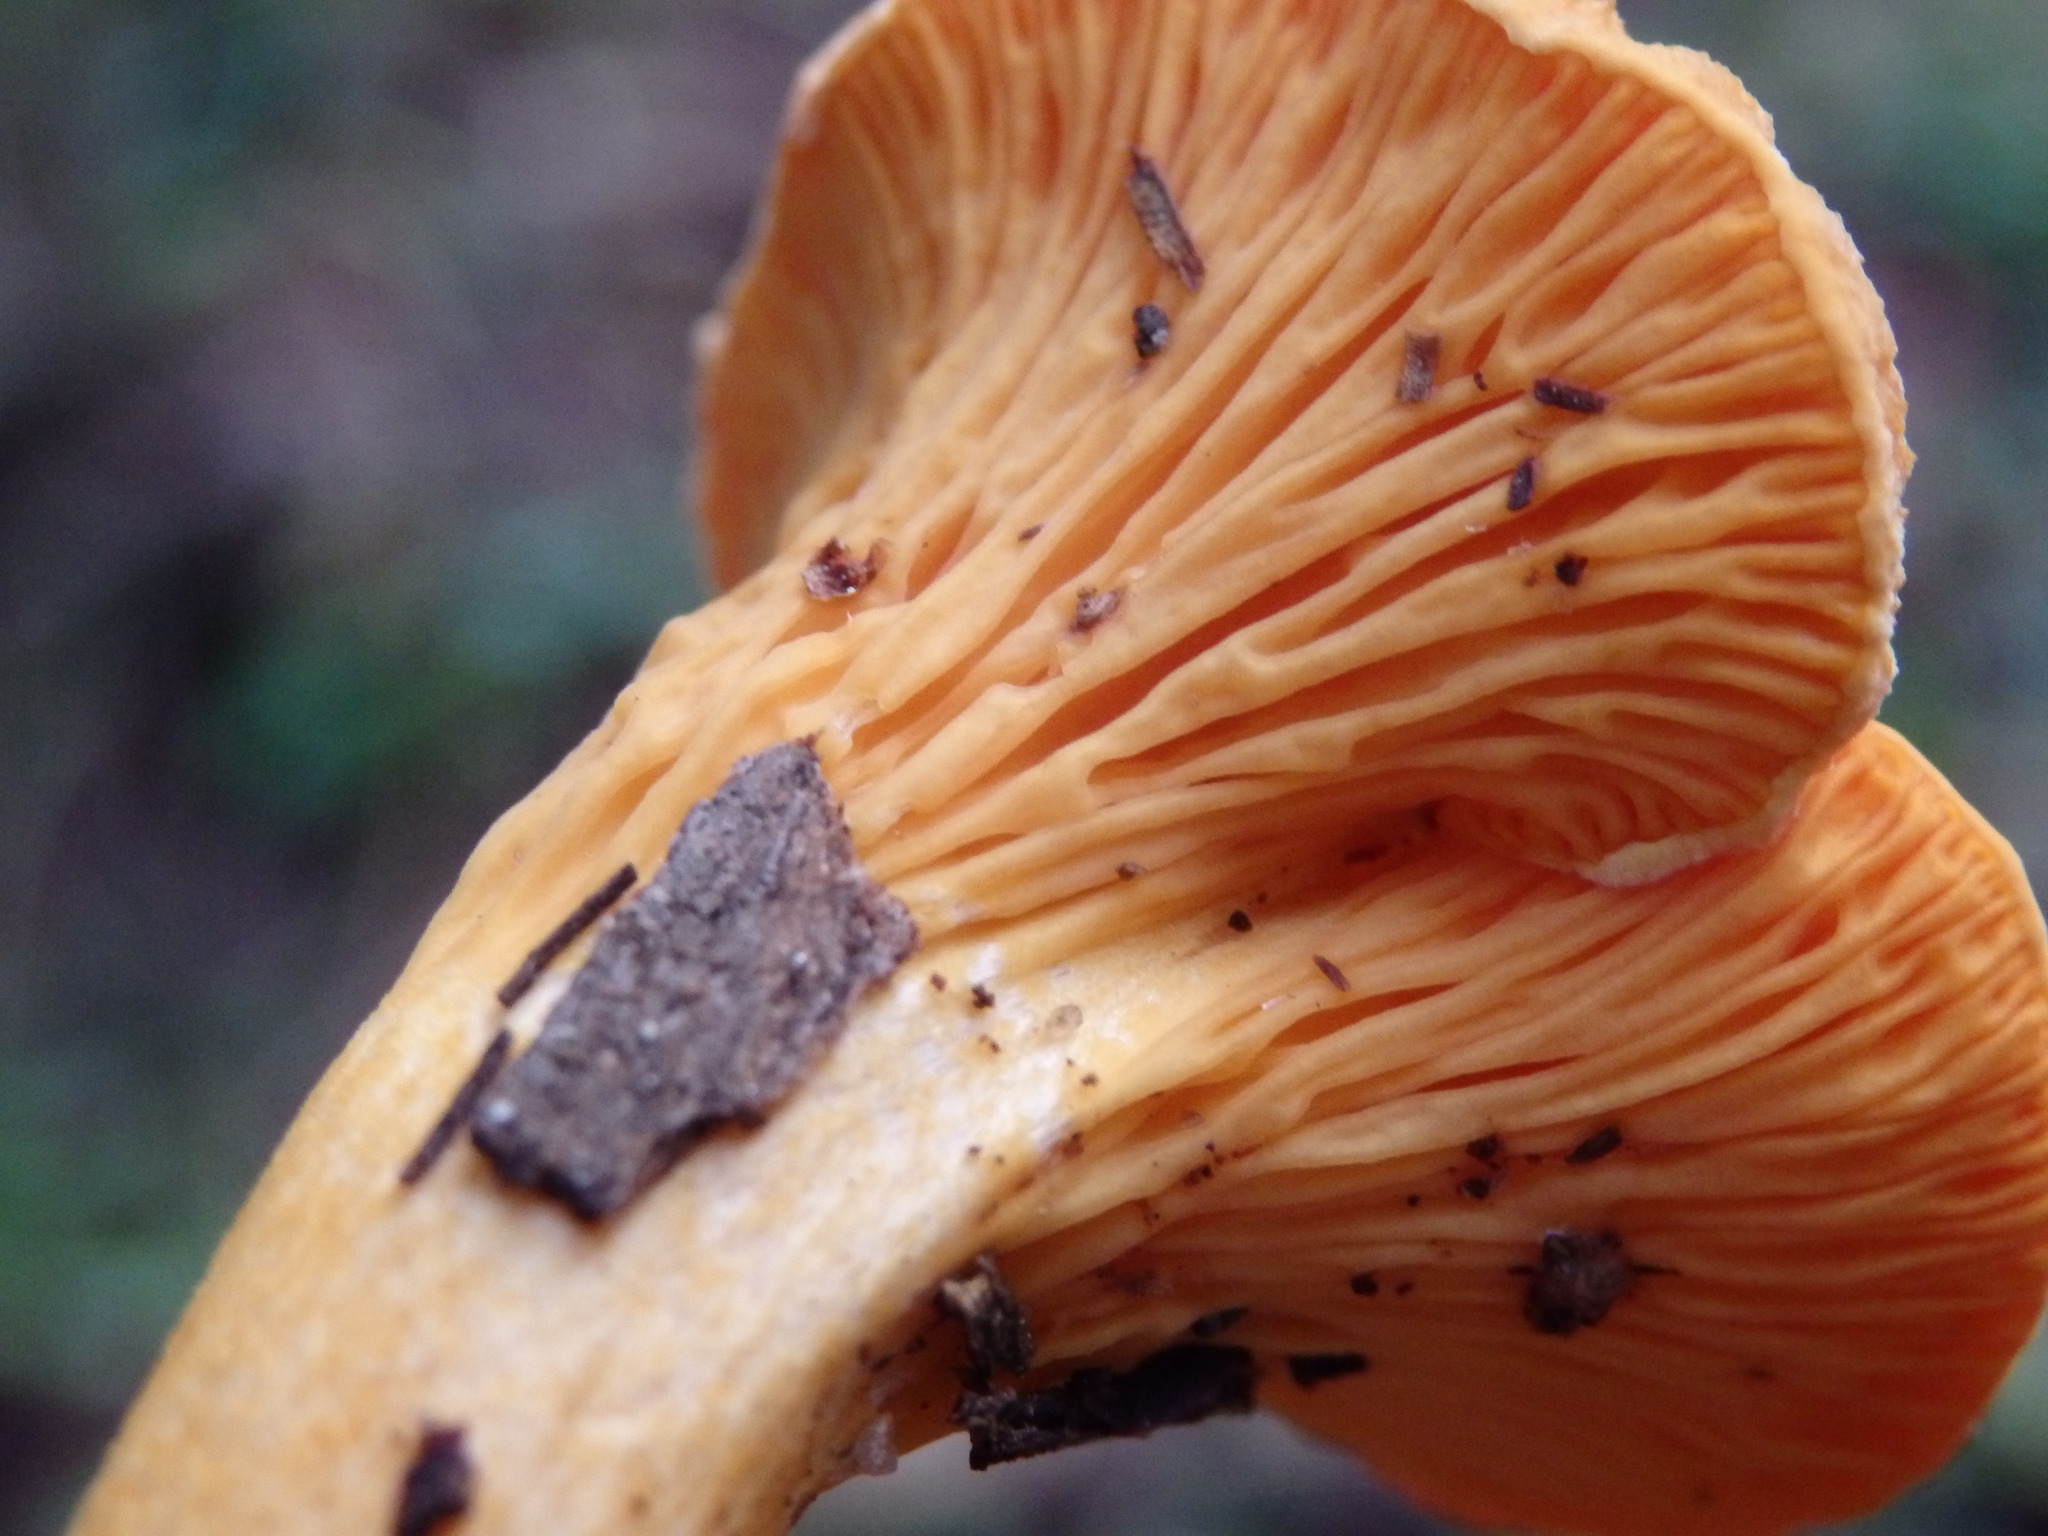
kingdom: Fungi
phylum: Basidiomycota
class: Agaricomycetes
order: Boletales
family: Hygrophoropsidaceae
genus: Hygrophoropsis
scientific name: Hygrophoropsis aurantiaca
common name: False chanterelle
